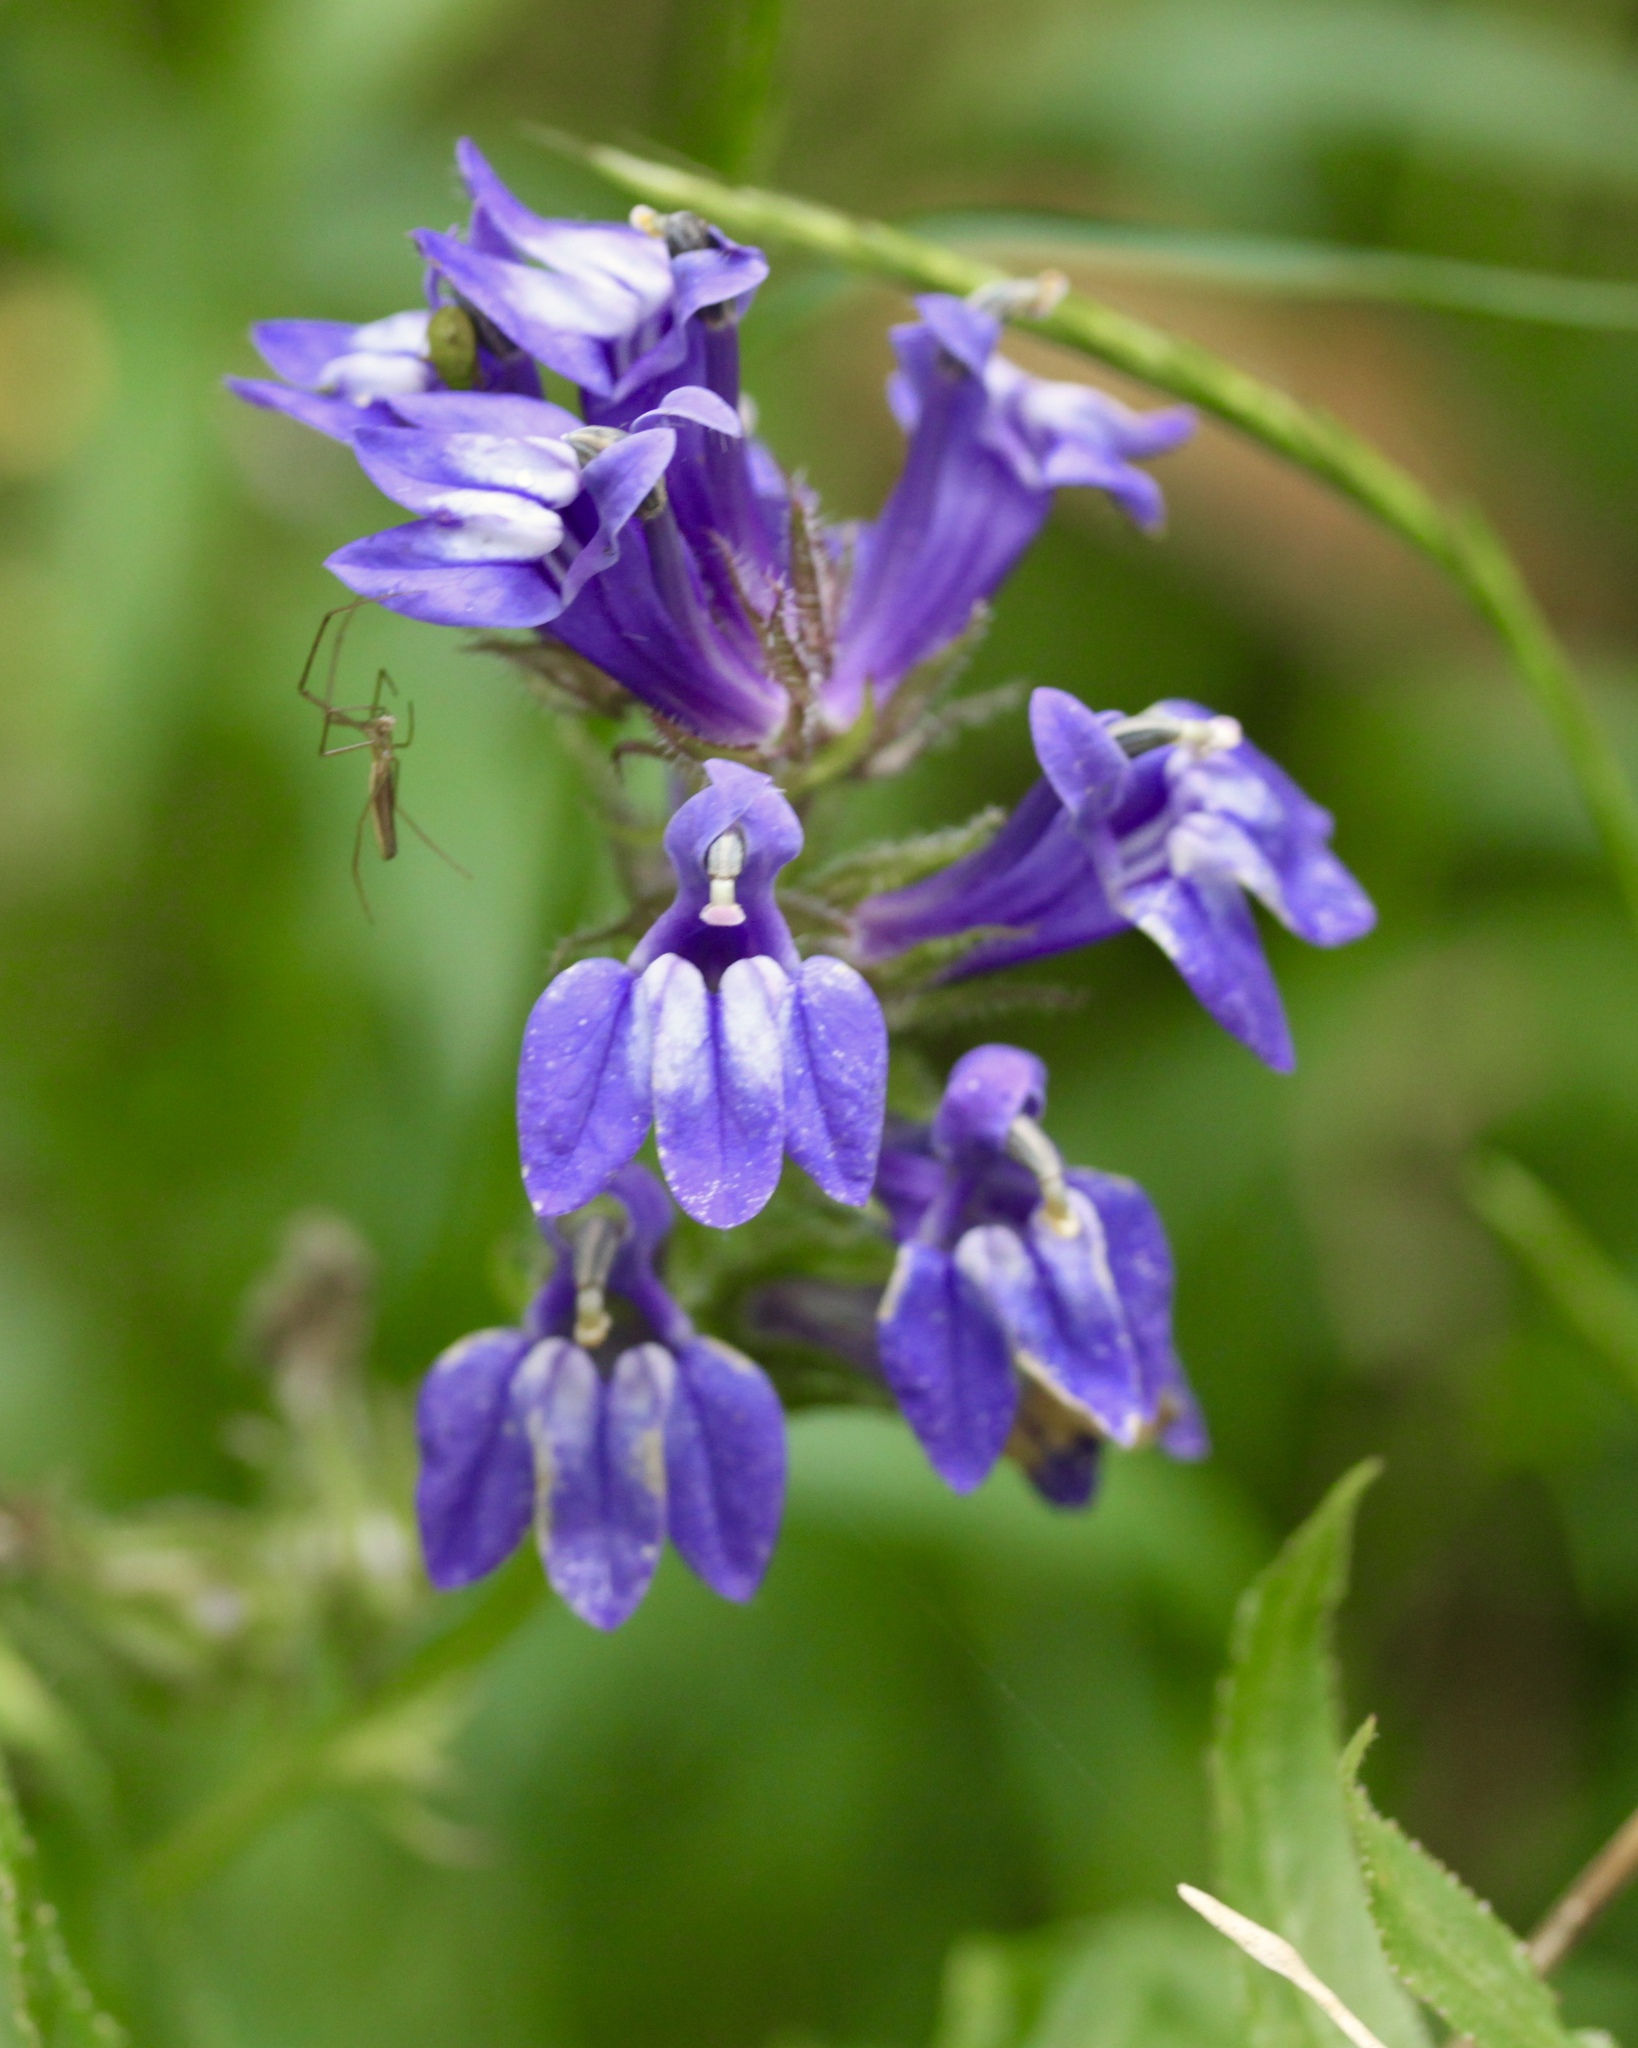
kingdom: Plantae
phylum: Tracheophyta
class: Magnoliopsida
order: Asterales
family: Campanulaceae
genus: Lobelia
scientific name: Lobelia siphilitica
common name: Great lobelia
